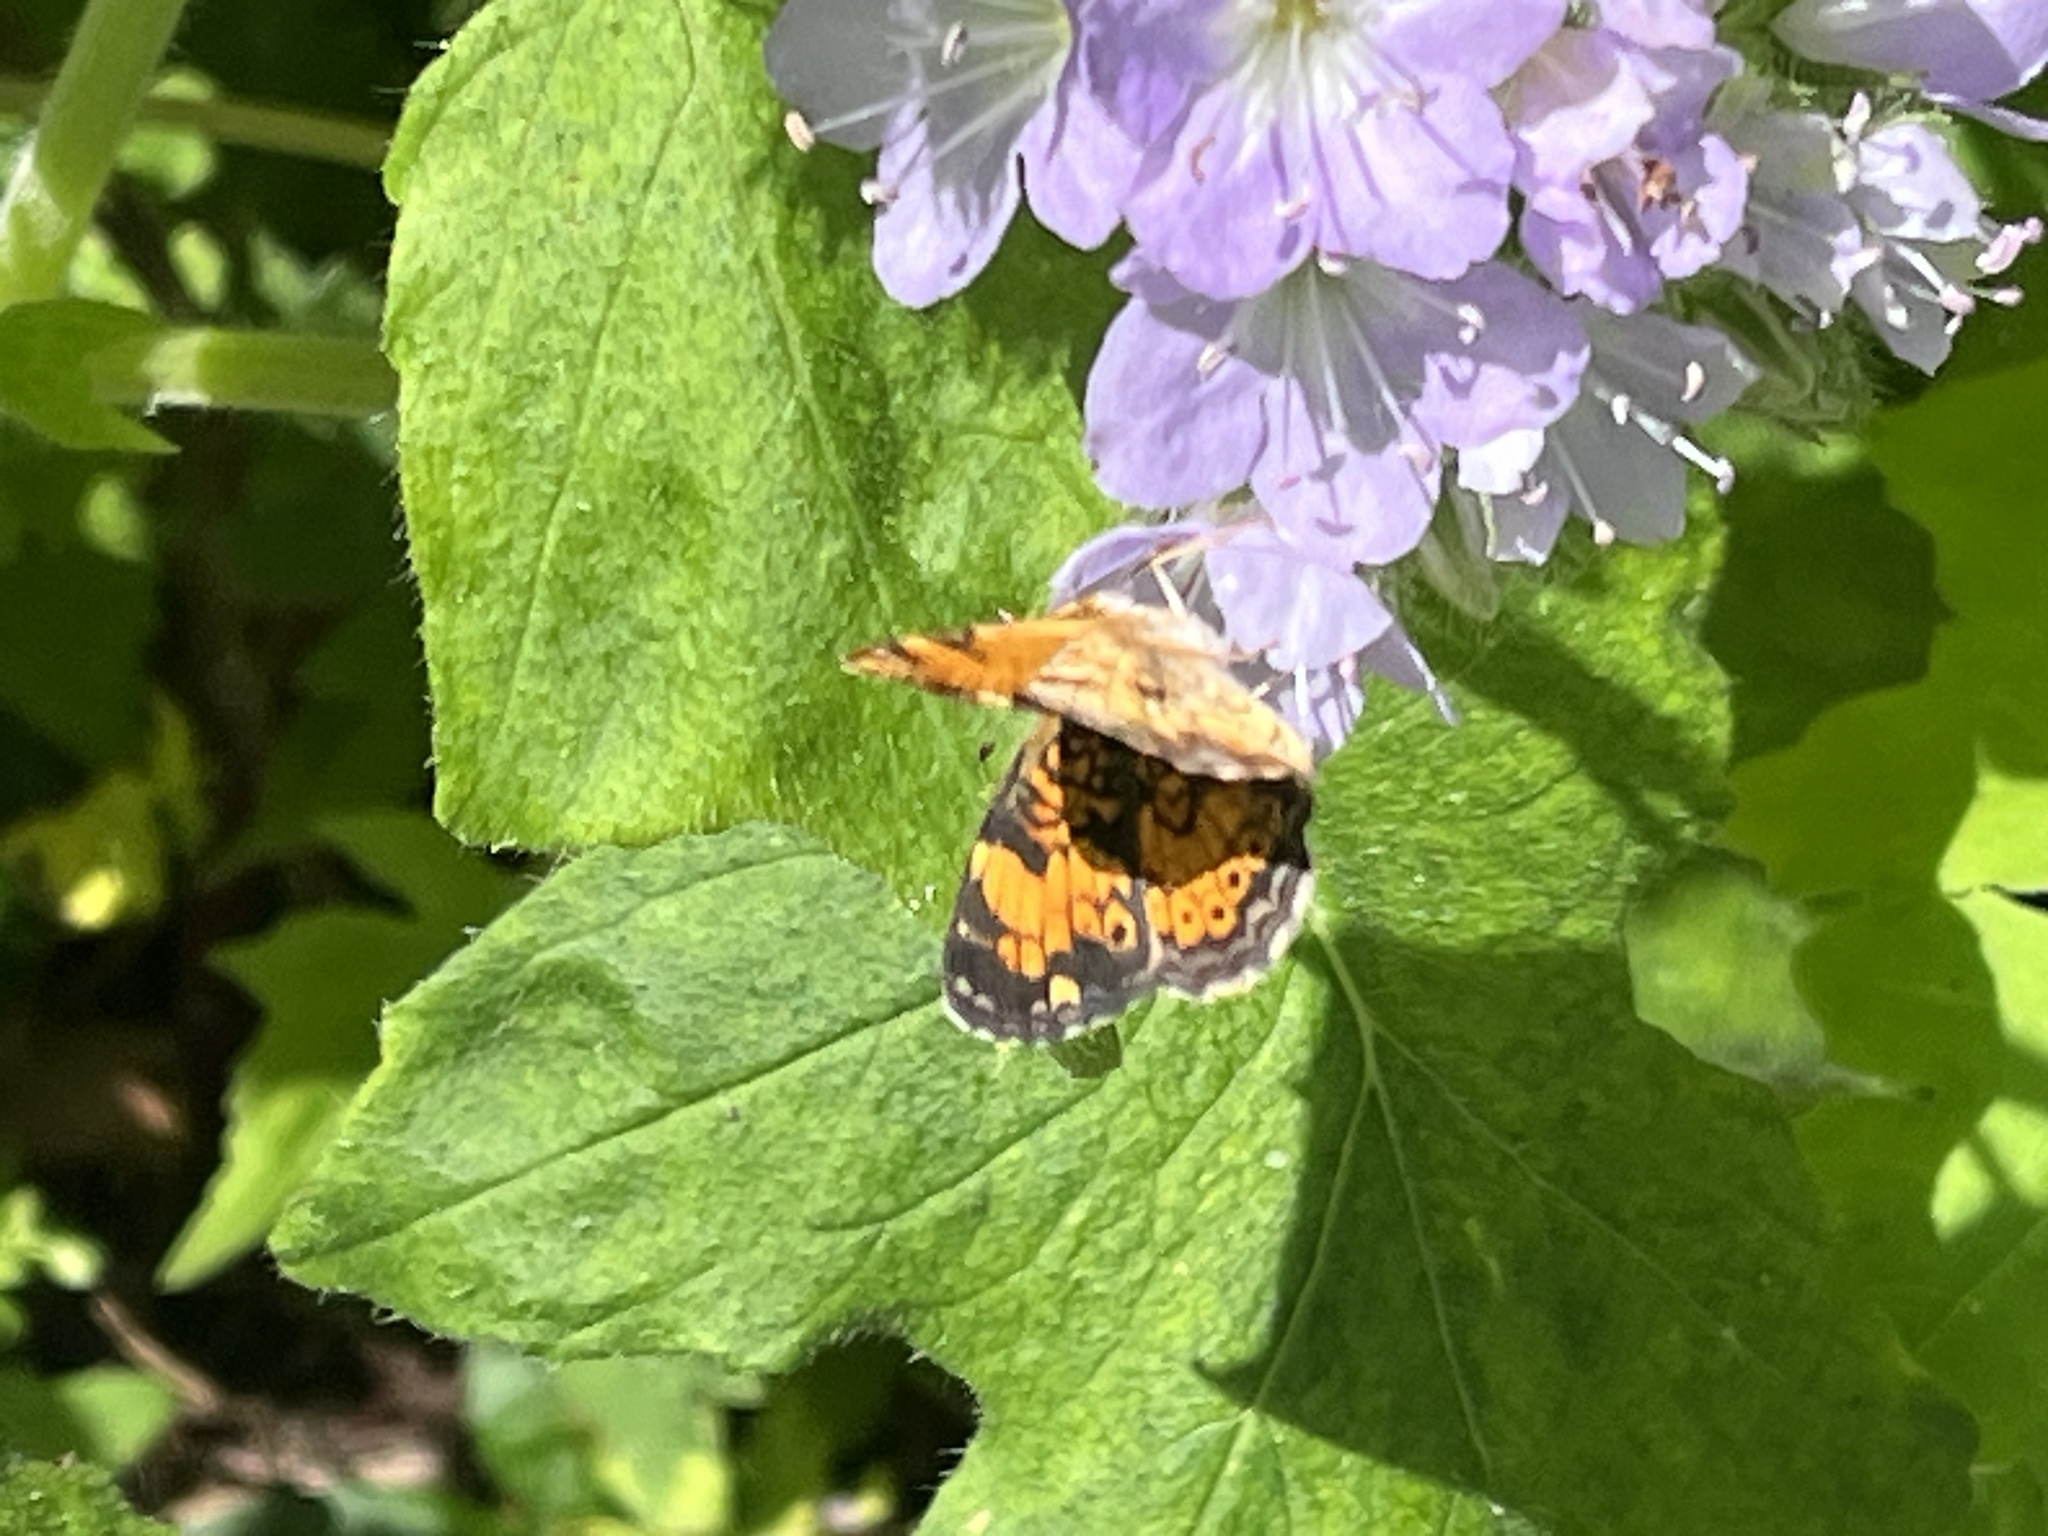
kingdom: Animalia
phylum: Arthropoda
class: Insecta
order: Lepidoptera
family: Nymphalidae
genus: Phyciodes
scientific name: Phyciodes tharos
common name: Pearl crescent
